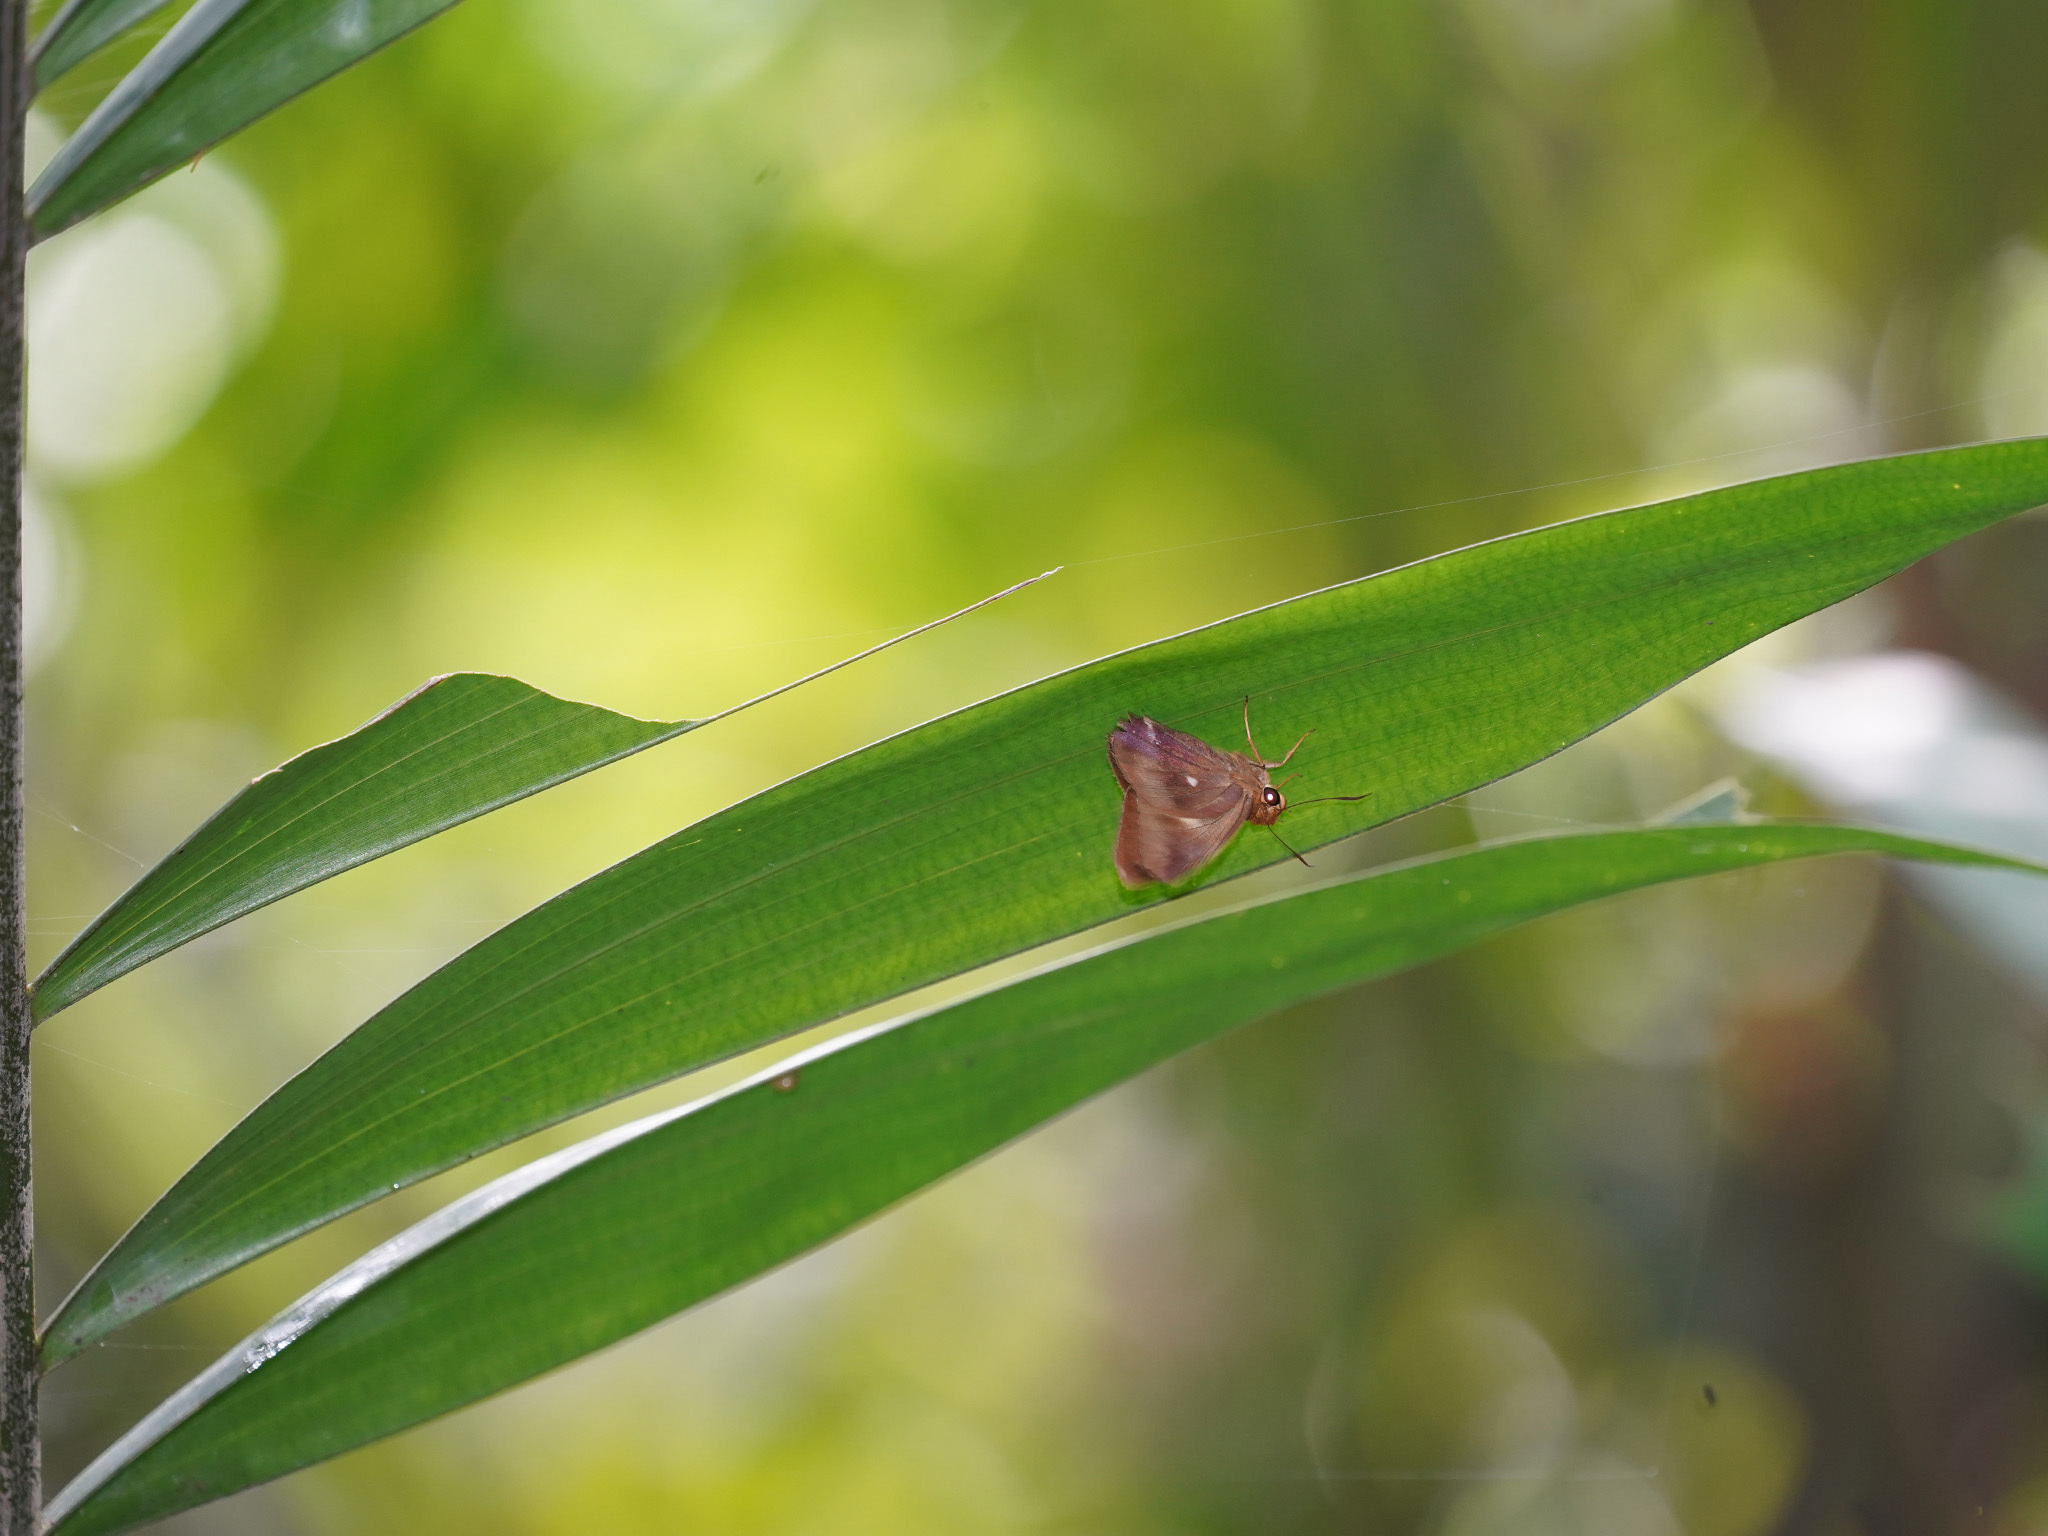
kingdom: Animalia
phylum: Arthropoda
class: Insecta
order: Lepidoptera
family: Hesperiidae
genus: Hasora
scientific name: Hasora badra
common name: Common awl
